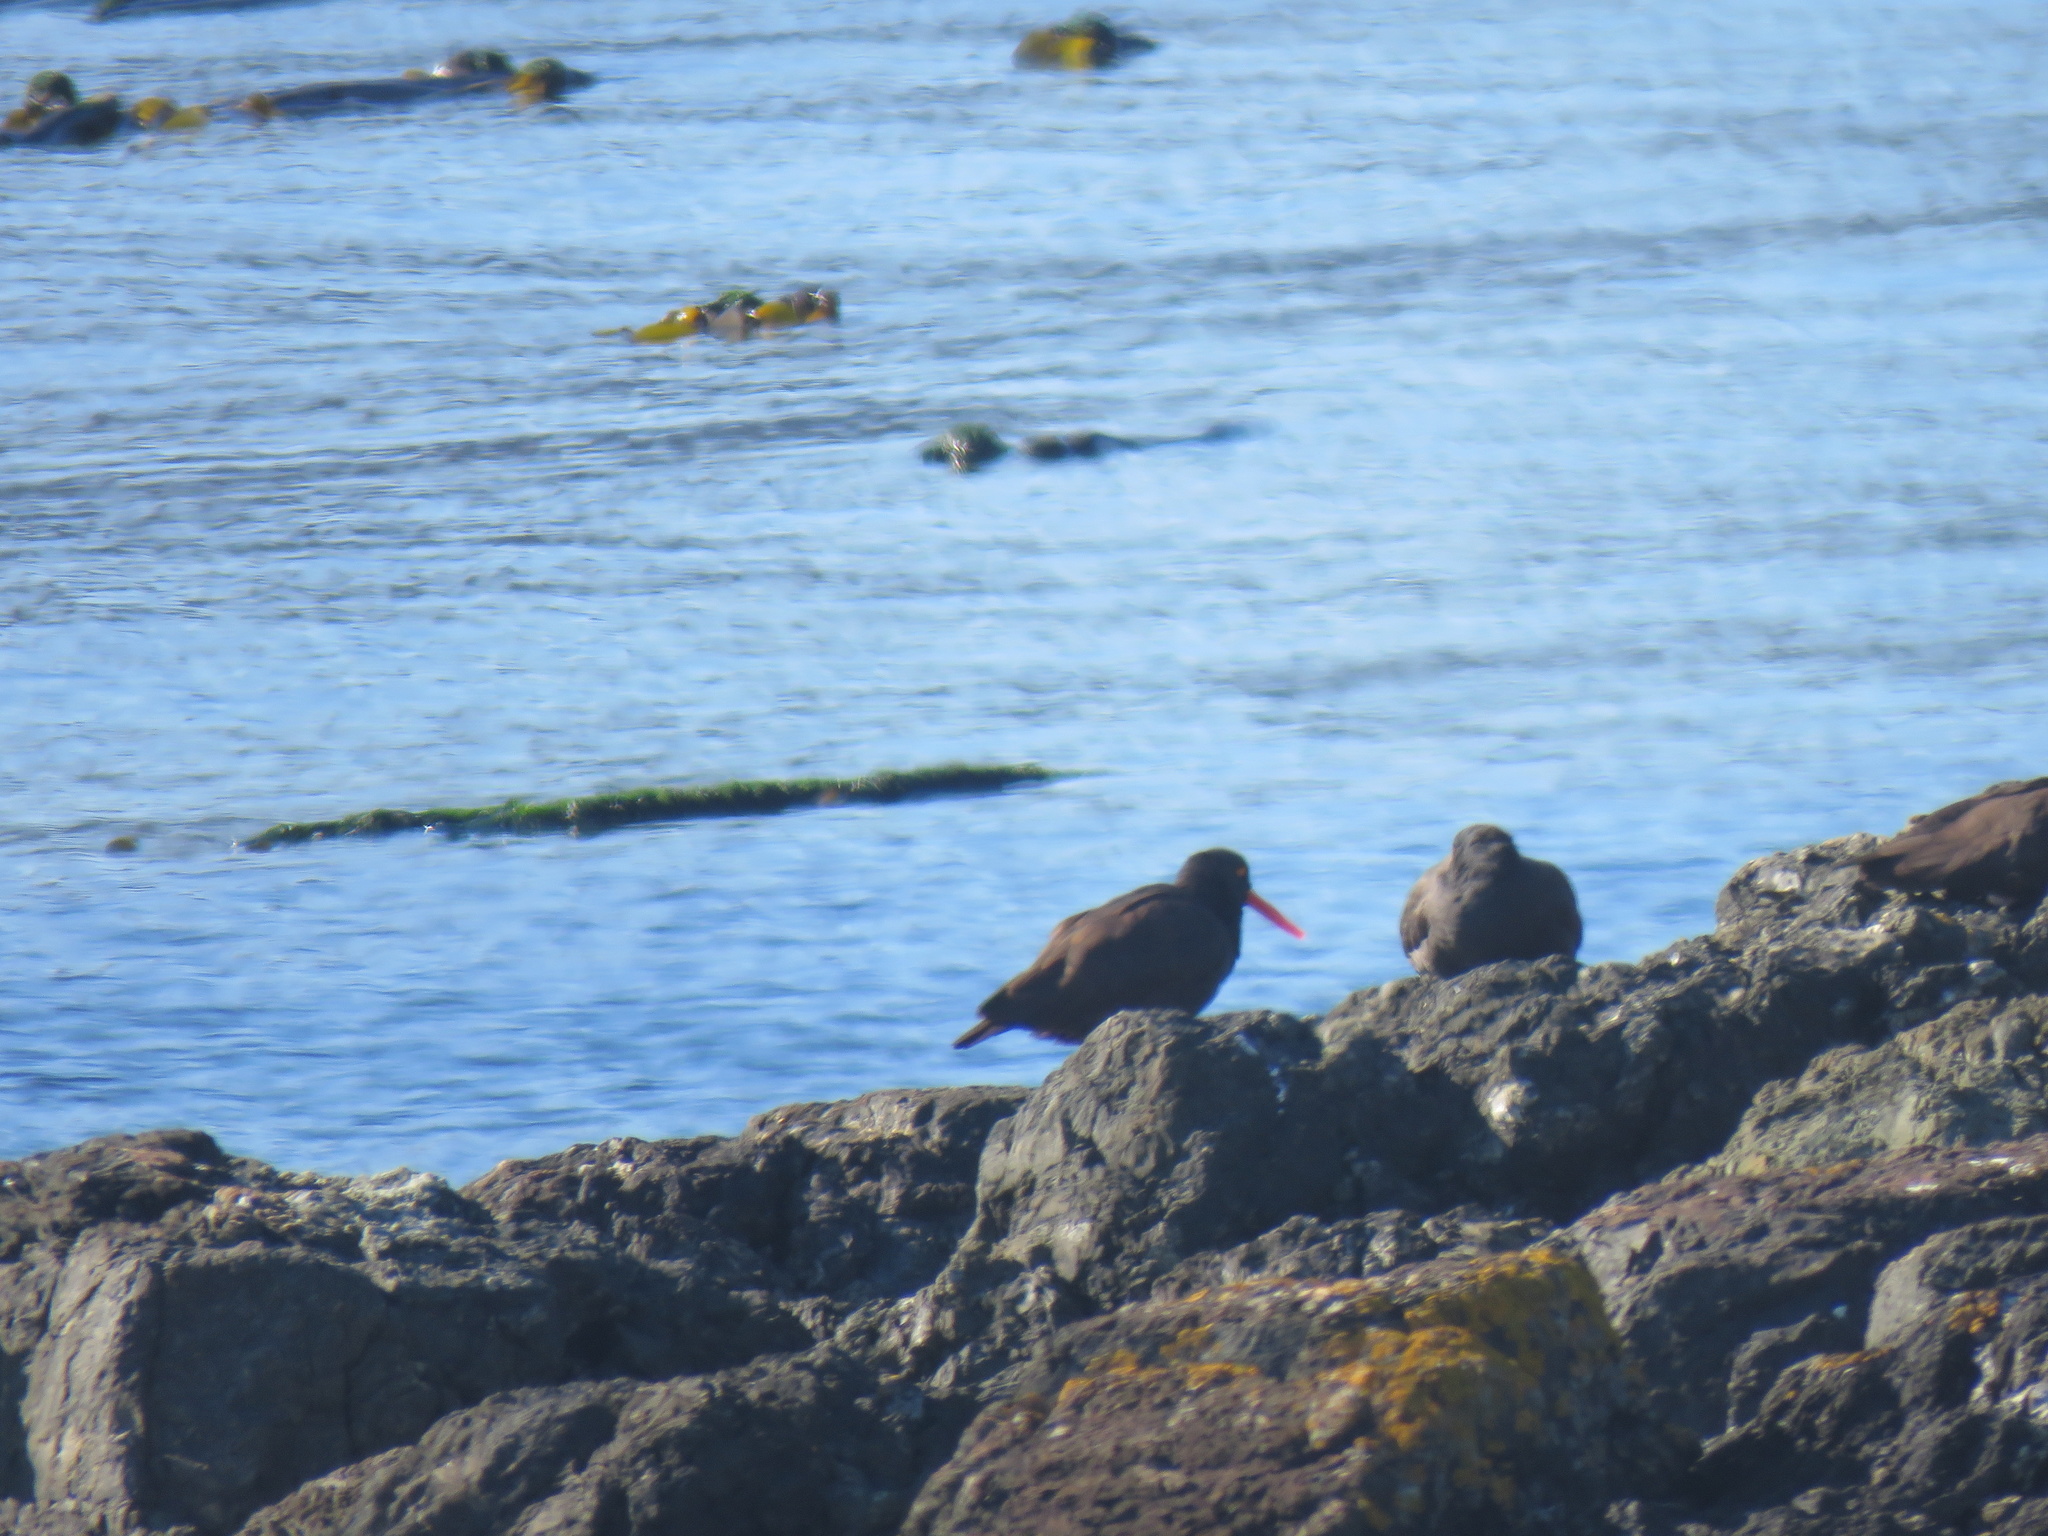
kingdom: Animalia
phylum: Chordata
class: Aves
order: Charadriiformes
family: Haematopodidae
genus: Haematopus
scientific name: Haematopus bachmani
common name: Black oystercatcher
